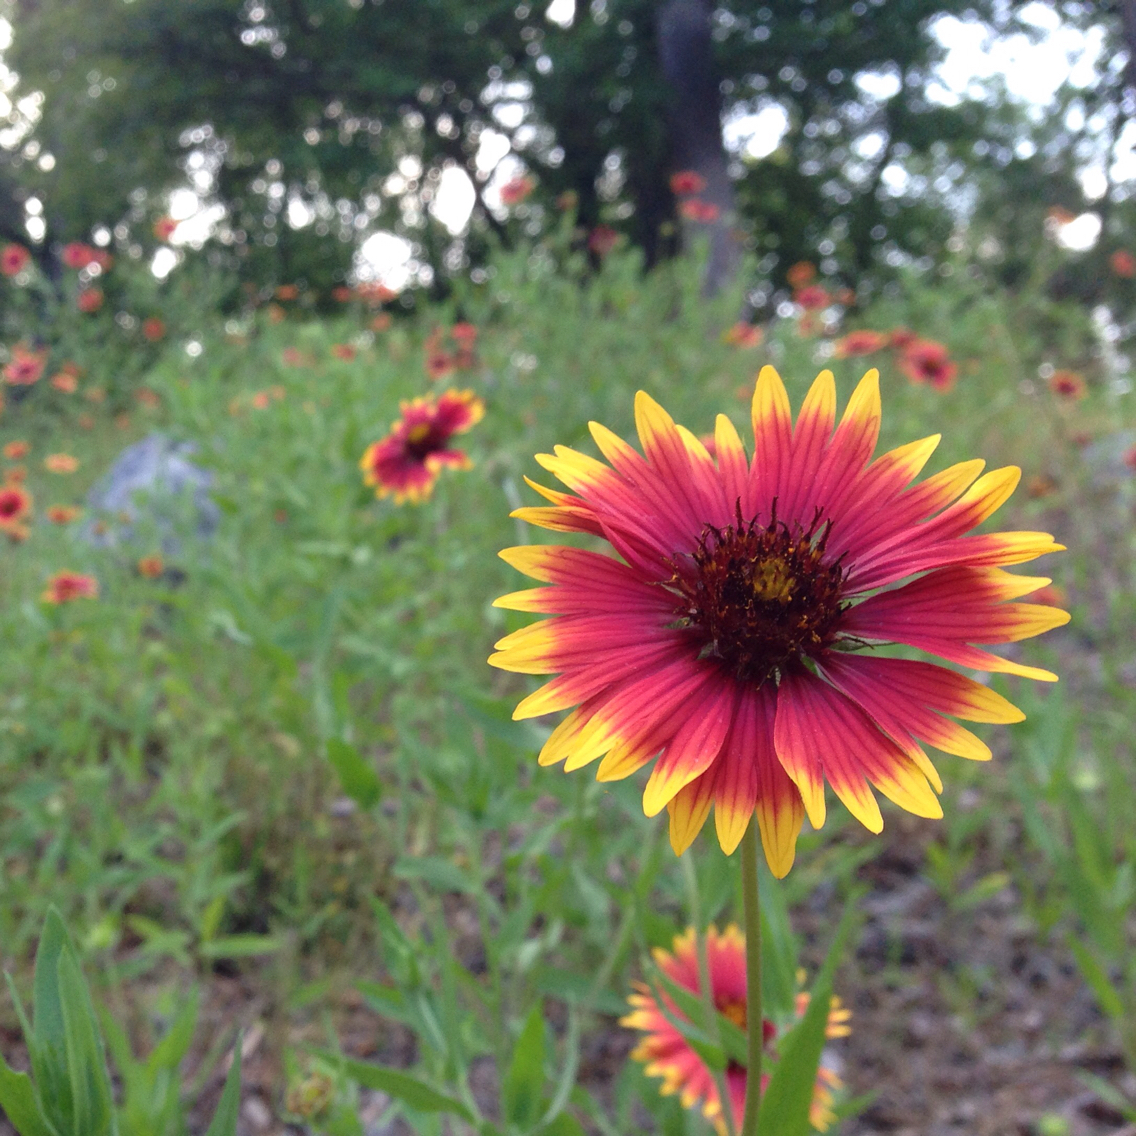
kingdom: Plantae
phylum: Tracheophyta
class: Magnoliopsida
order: Asterales
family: Asteraceae
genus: Gaillardia
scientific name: Gaillardia grandiflora
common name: Blanket flower
